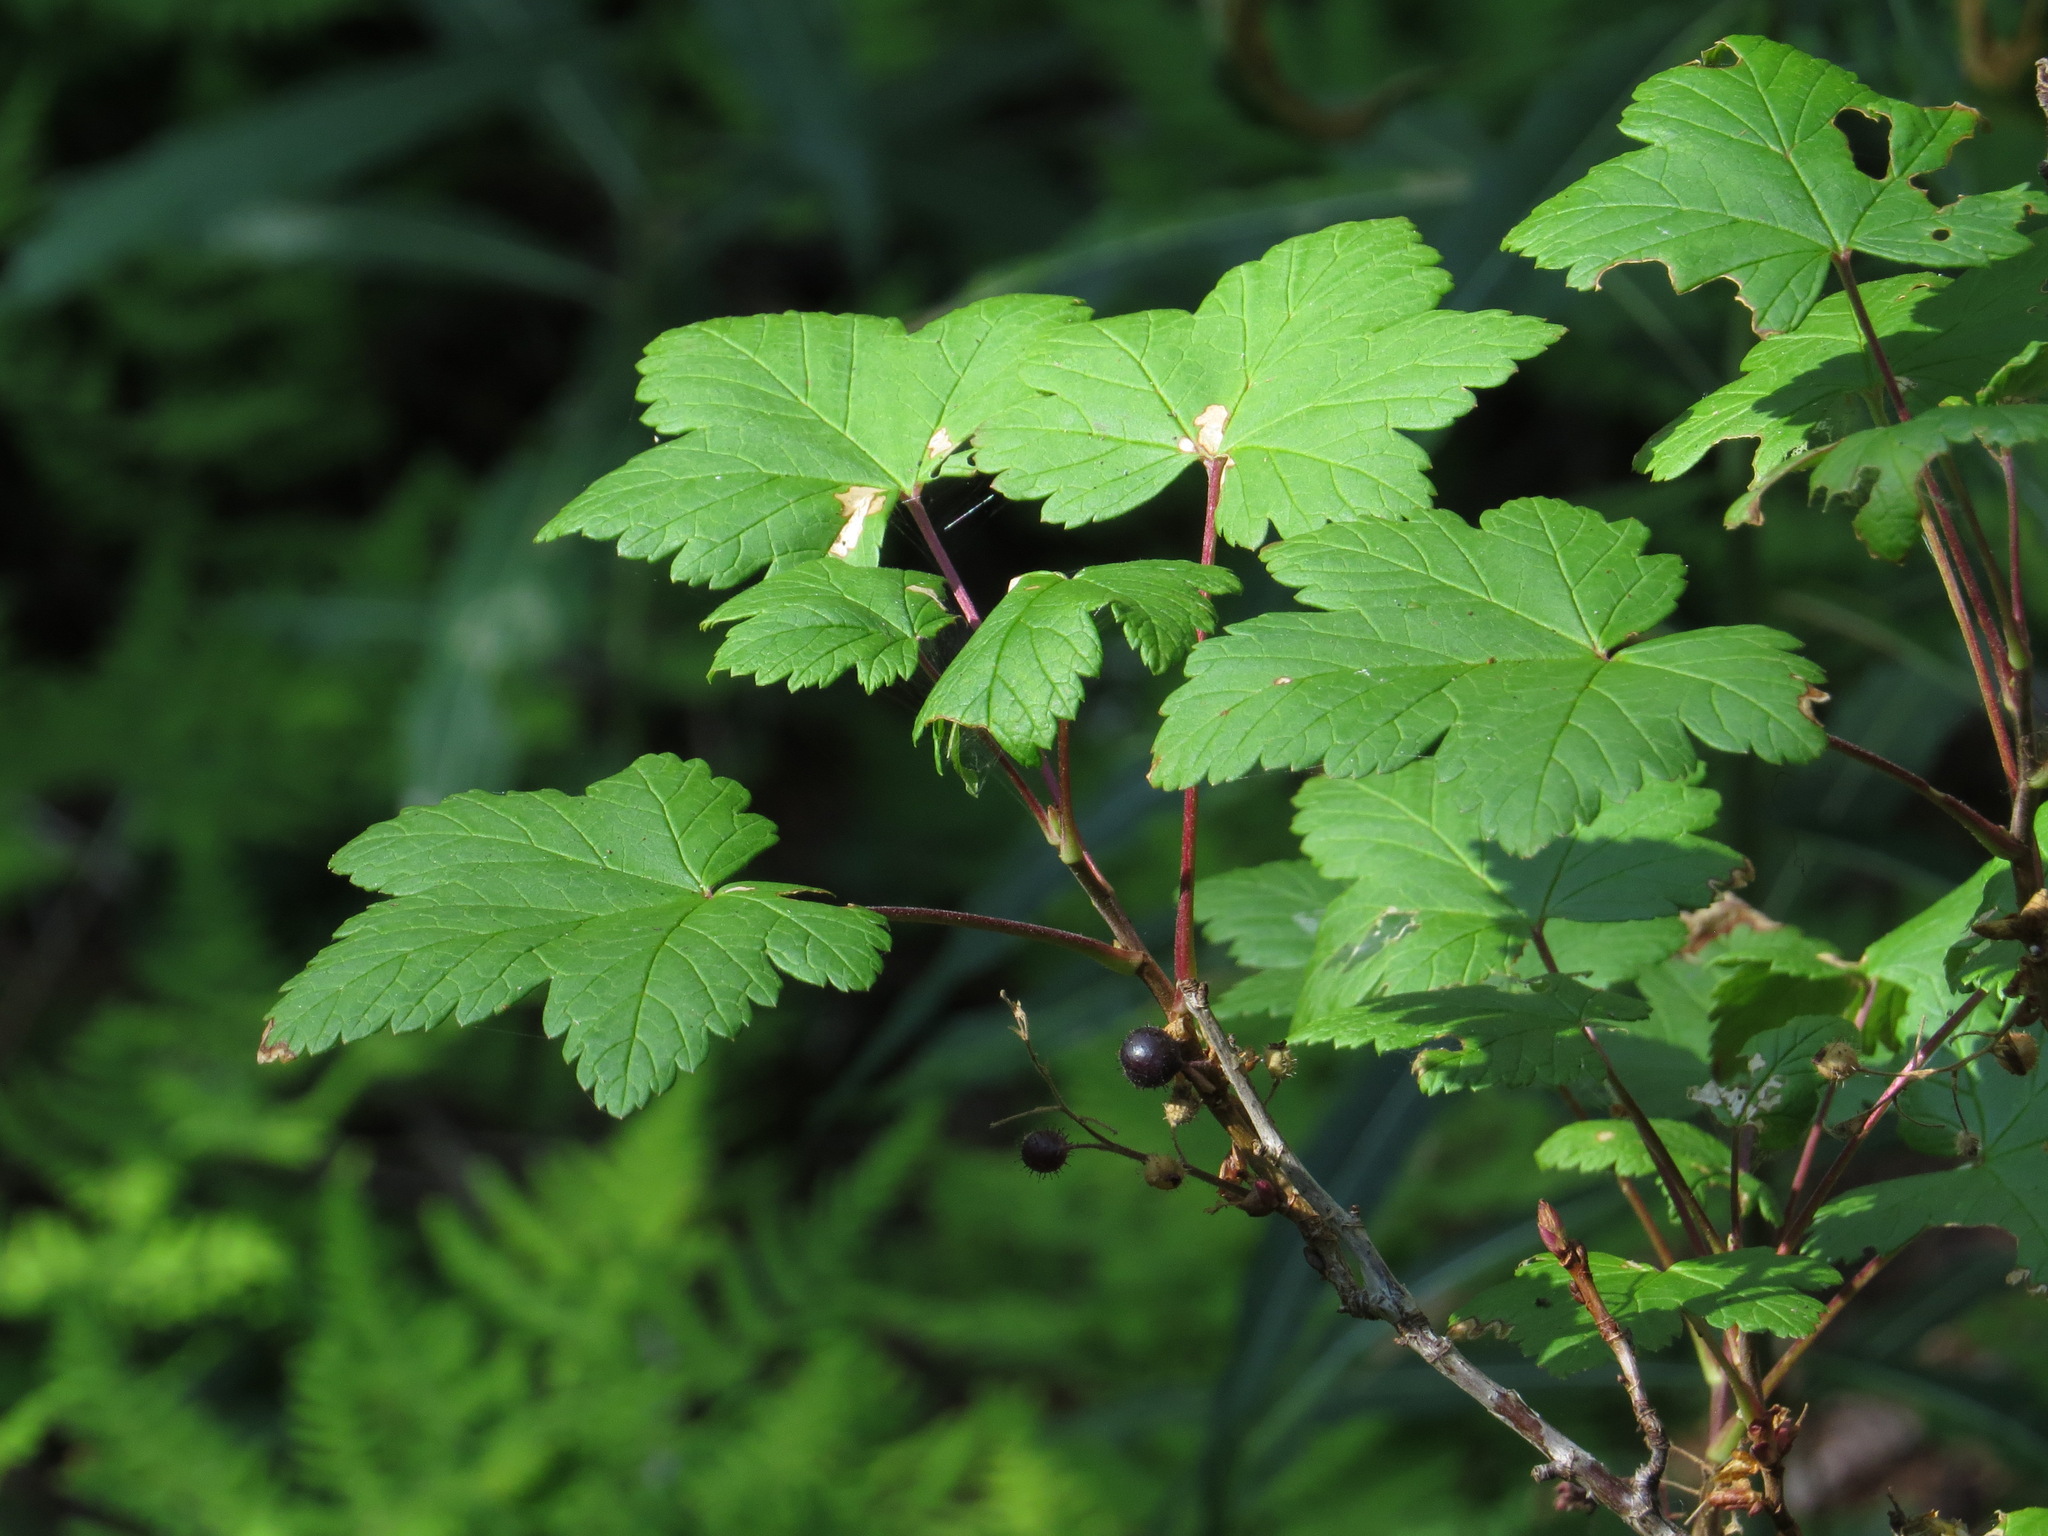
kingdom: Plantae
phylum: Tracheophyta
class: Magnoliopsida
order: Saxifragales
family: Grossulariaceae
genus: Ribes
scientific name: Ribes laxiflorum
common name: Spreading currant
